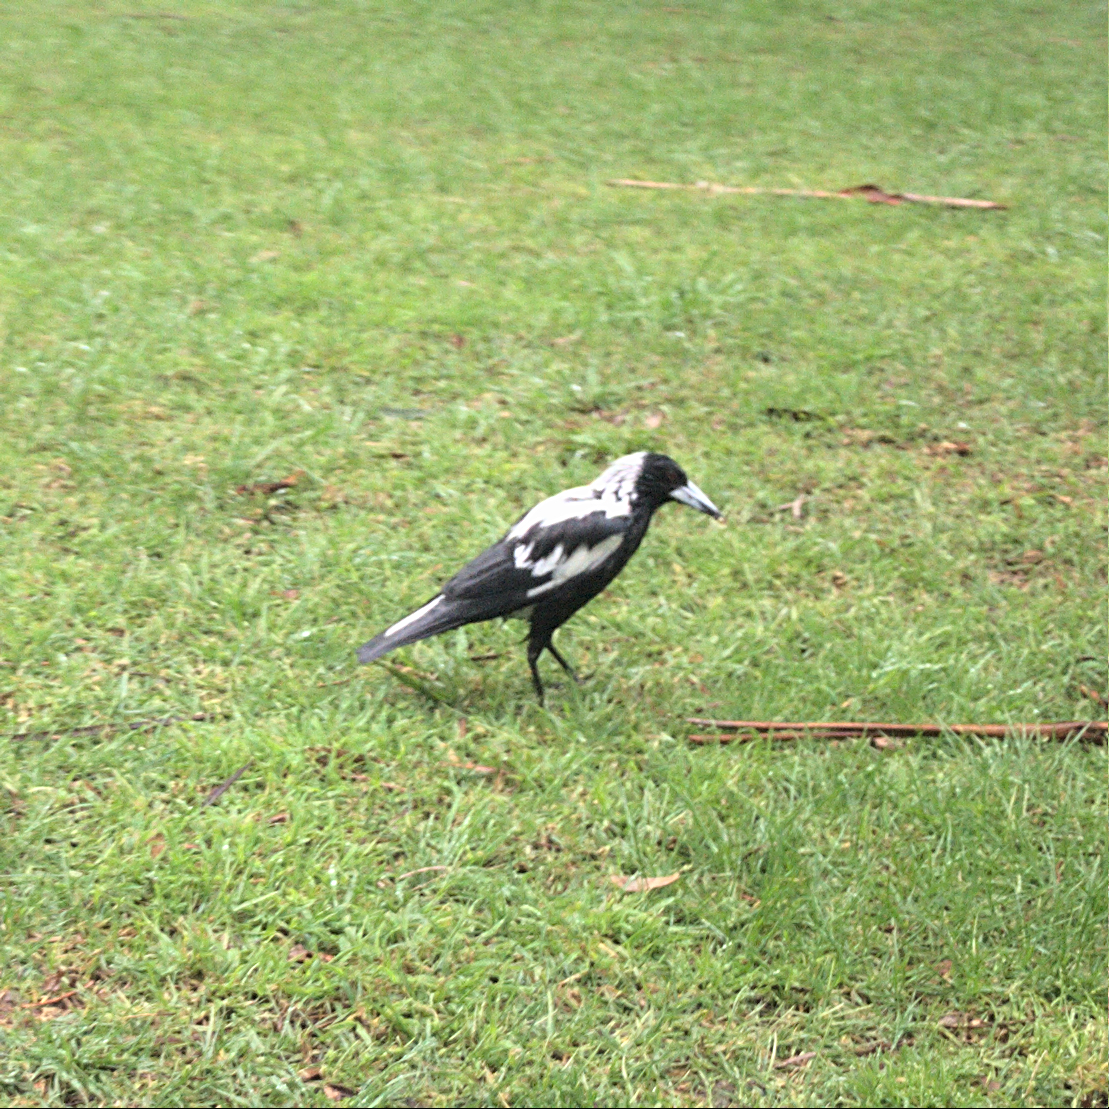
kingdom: Animalia
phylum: Chordata
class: Aves
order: Passeriformes
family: Cracticidae
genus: Gymnorhina
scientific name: Gymnorhina tibicen
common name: Australian magpie
